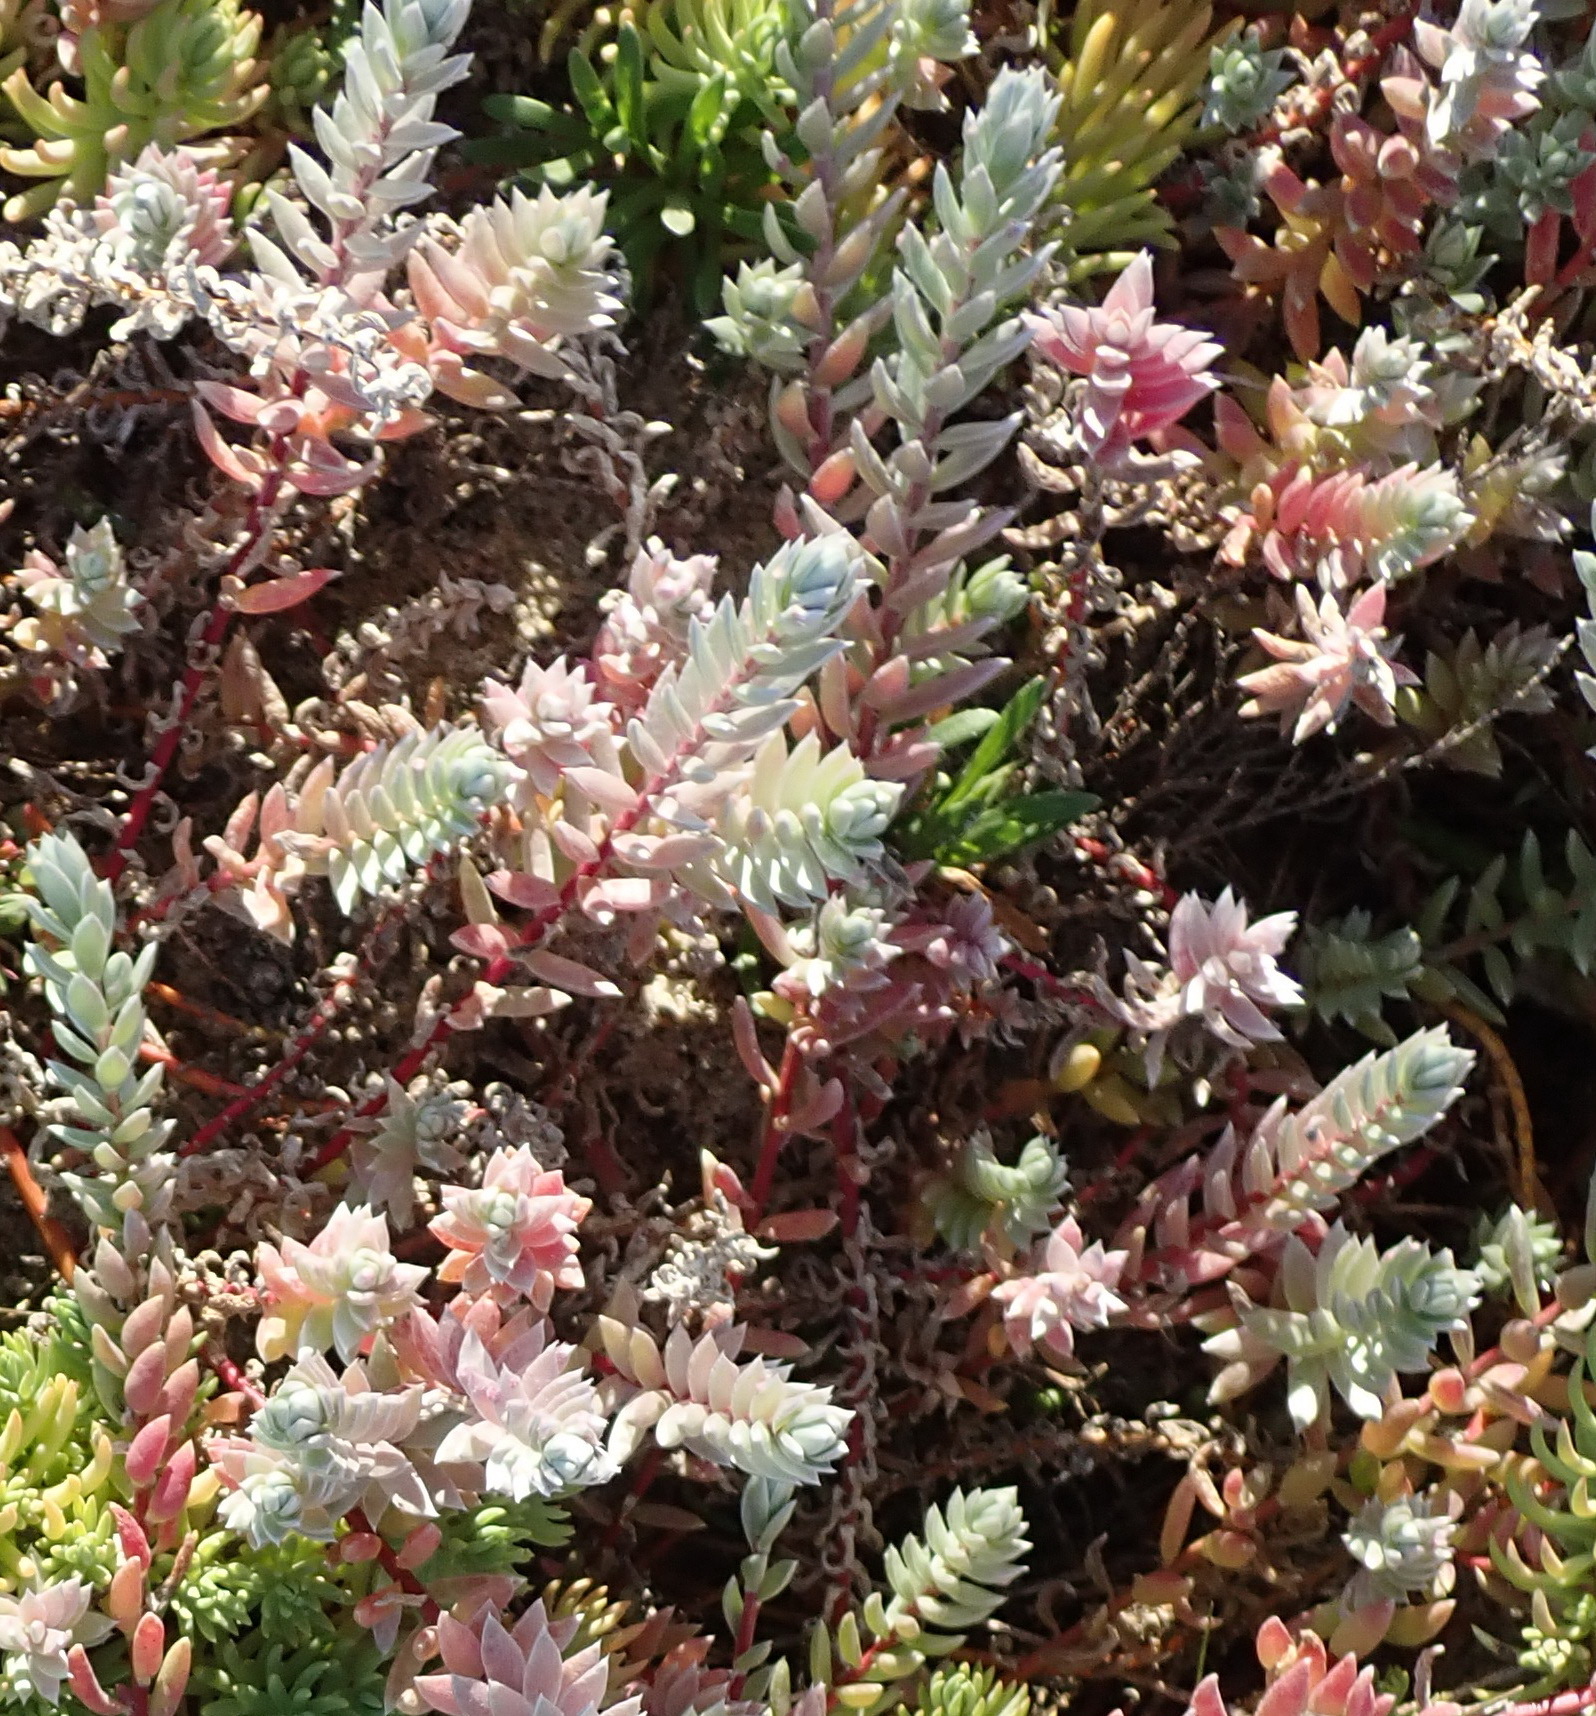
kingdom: Plantae
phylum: Tracheophyta
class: Magnoliopsida
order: Caryophyllales
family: Amaranthaceae
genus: Chenolea
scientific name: Chenolea diffusa
